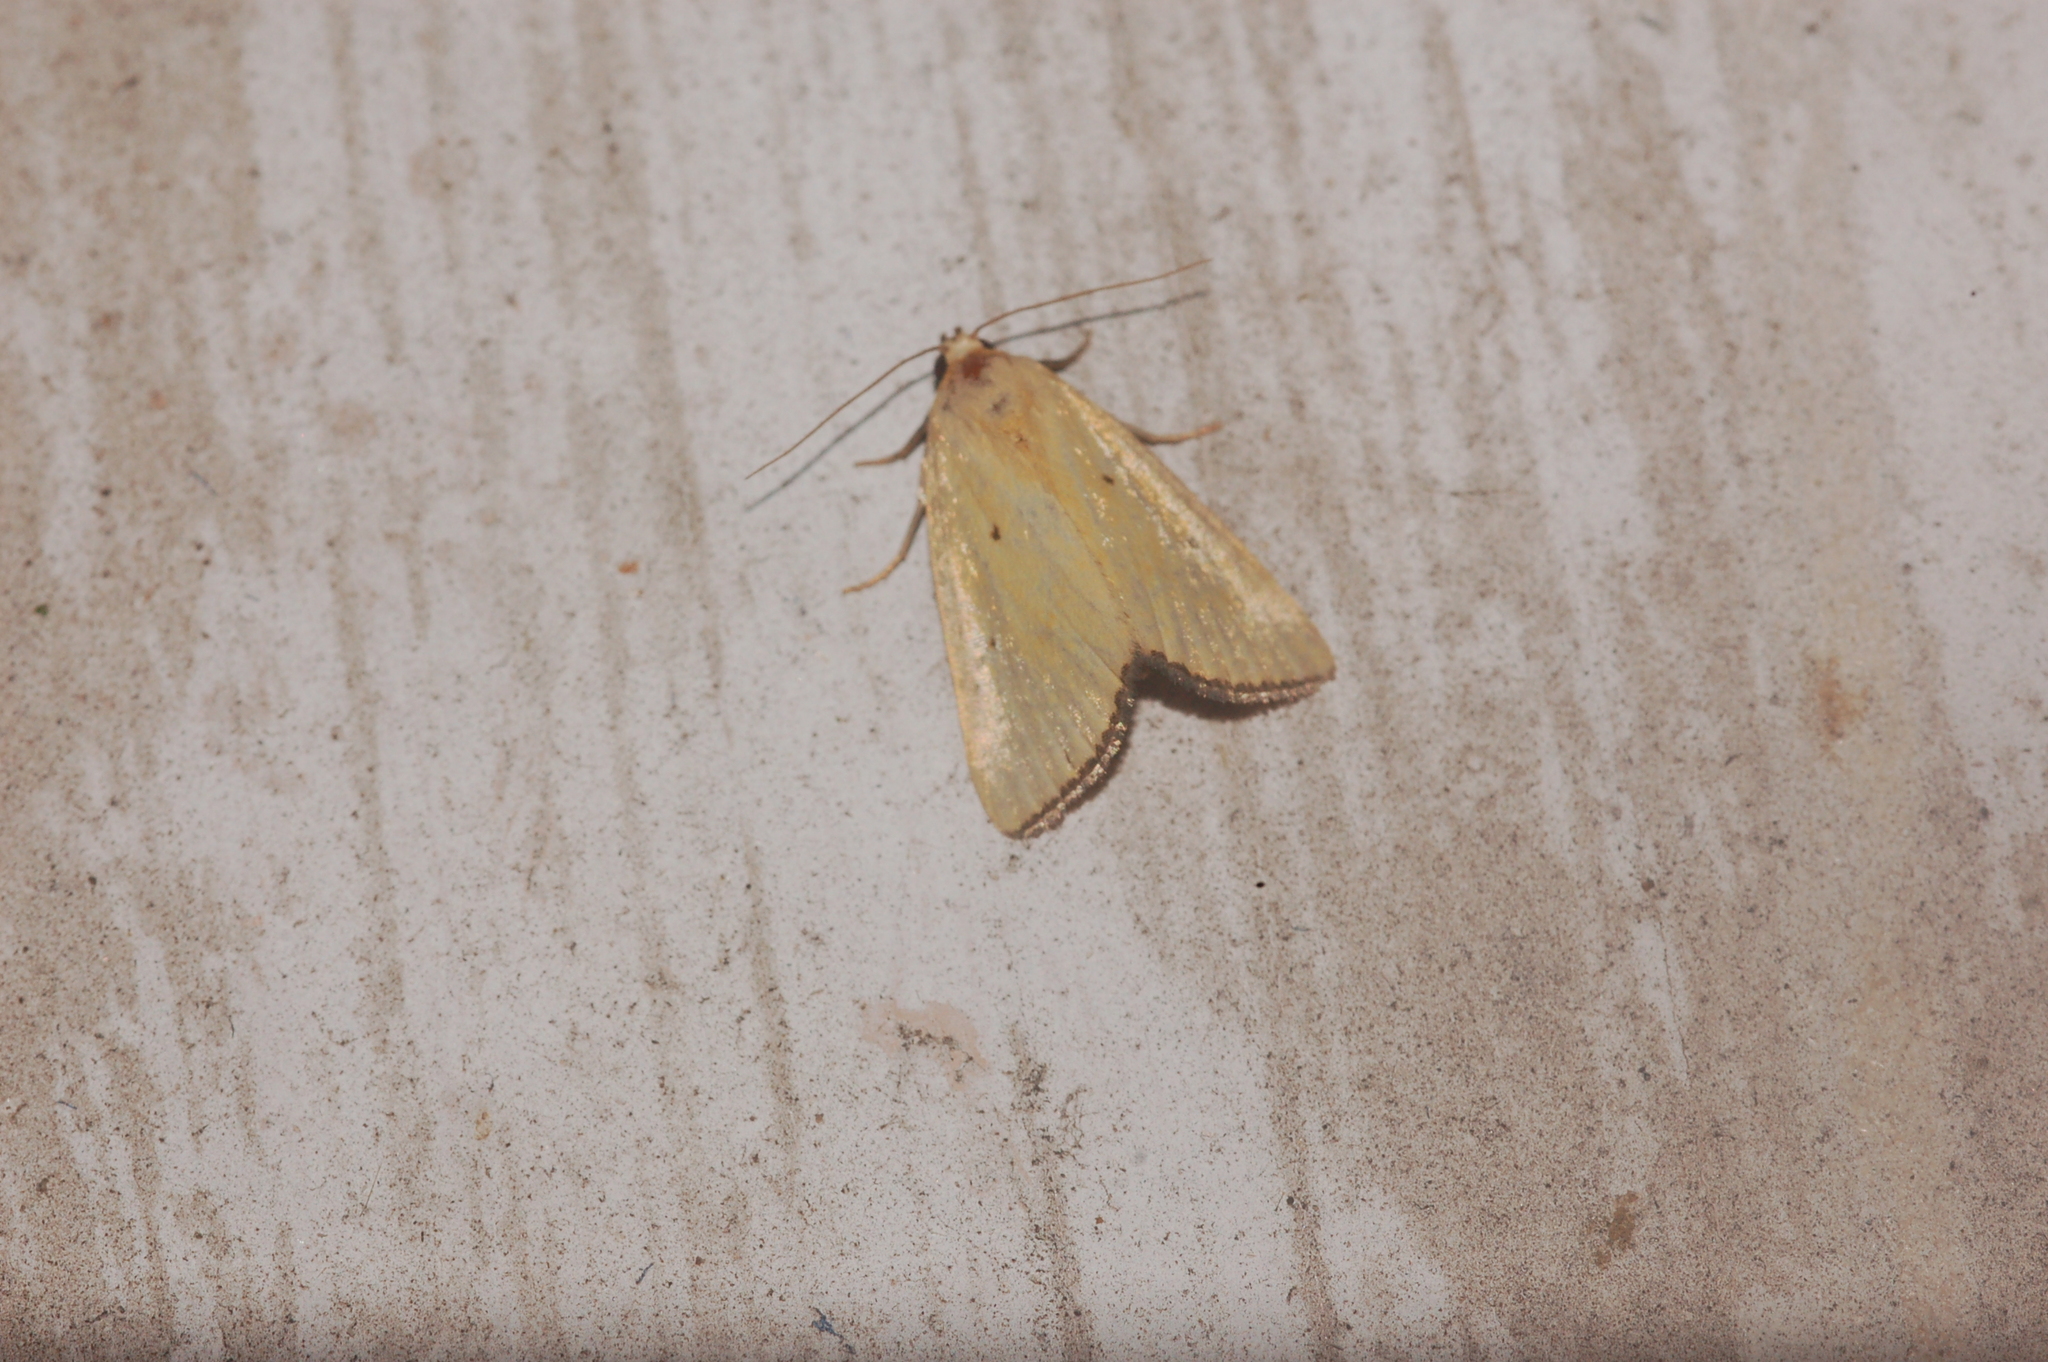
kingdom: Animalia
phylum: Arthropoda
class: Insecta
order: Lepidoptera
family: Noctuidae
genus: Marimatha
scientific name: Marimatha nigrofimbria
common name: Black-bordered lemon moth
